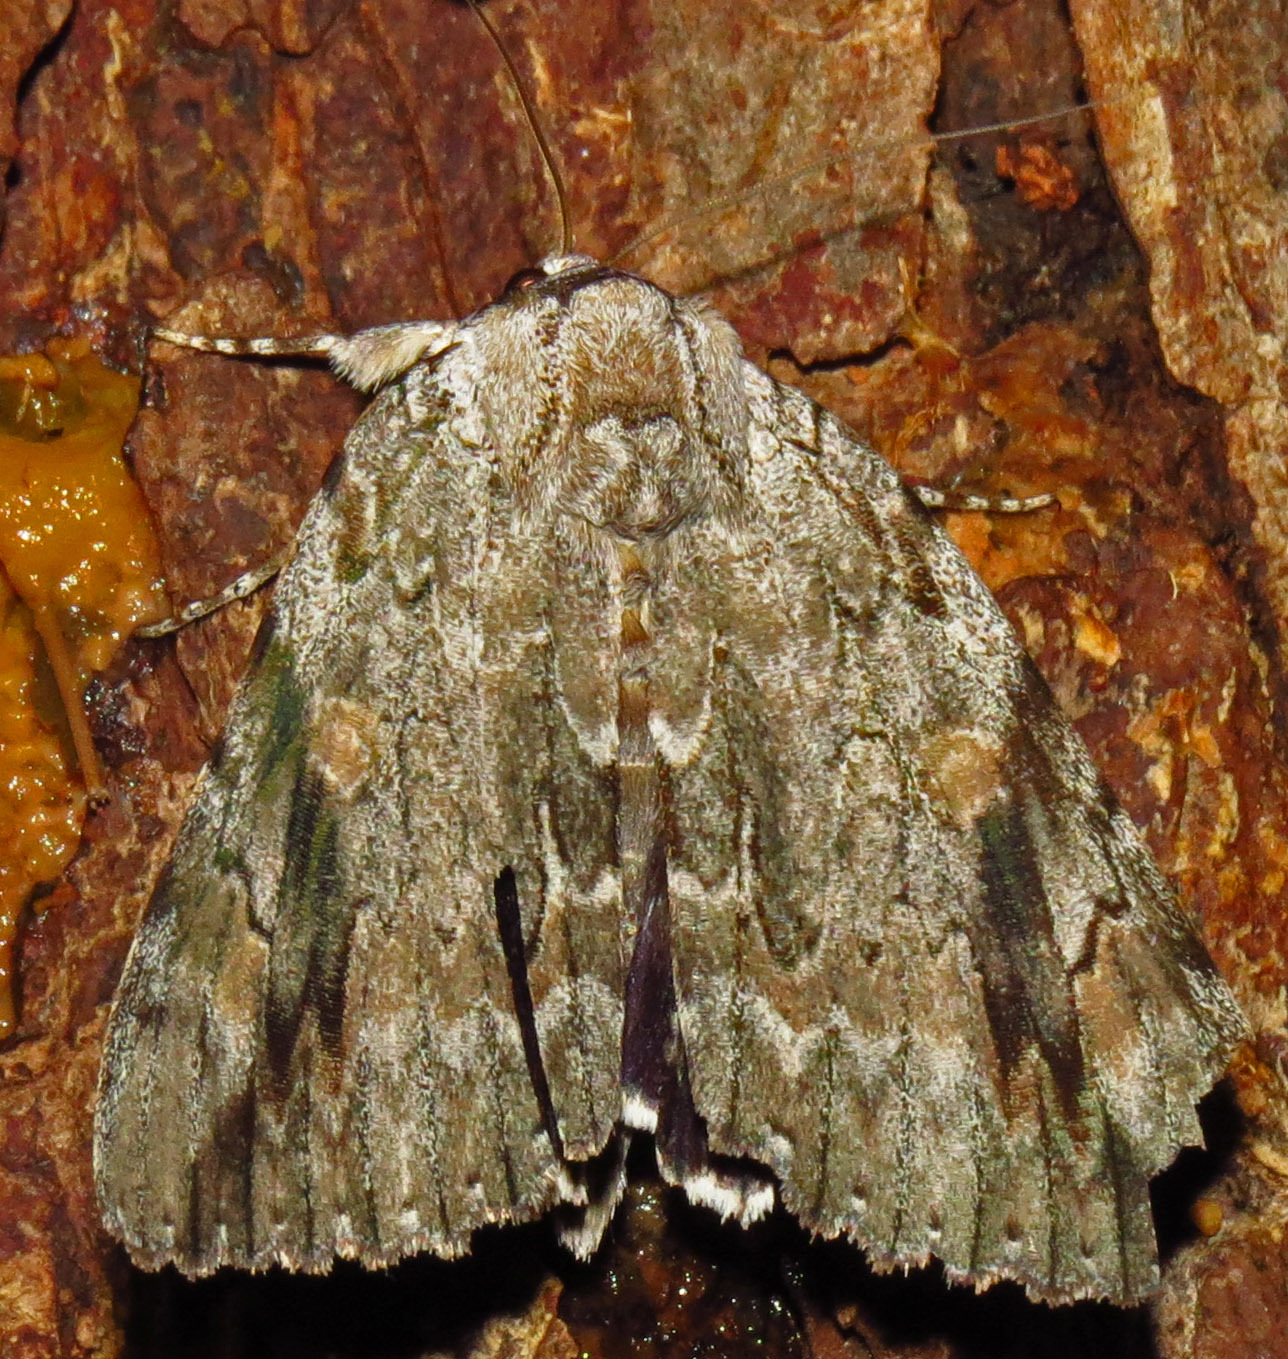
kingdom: Animalia
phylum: Arthropoda
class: Insecta
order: Lepidoptera
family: Erebidae
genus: Catocala
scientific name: Catocala maestosa
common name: Sad underwing
